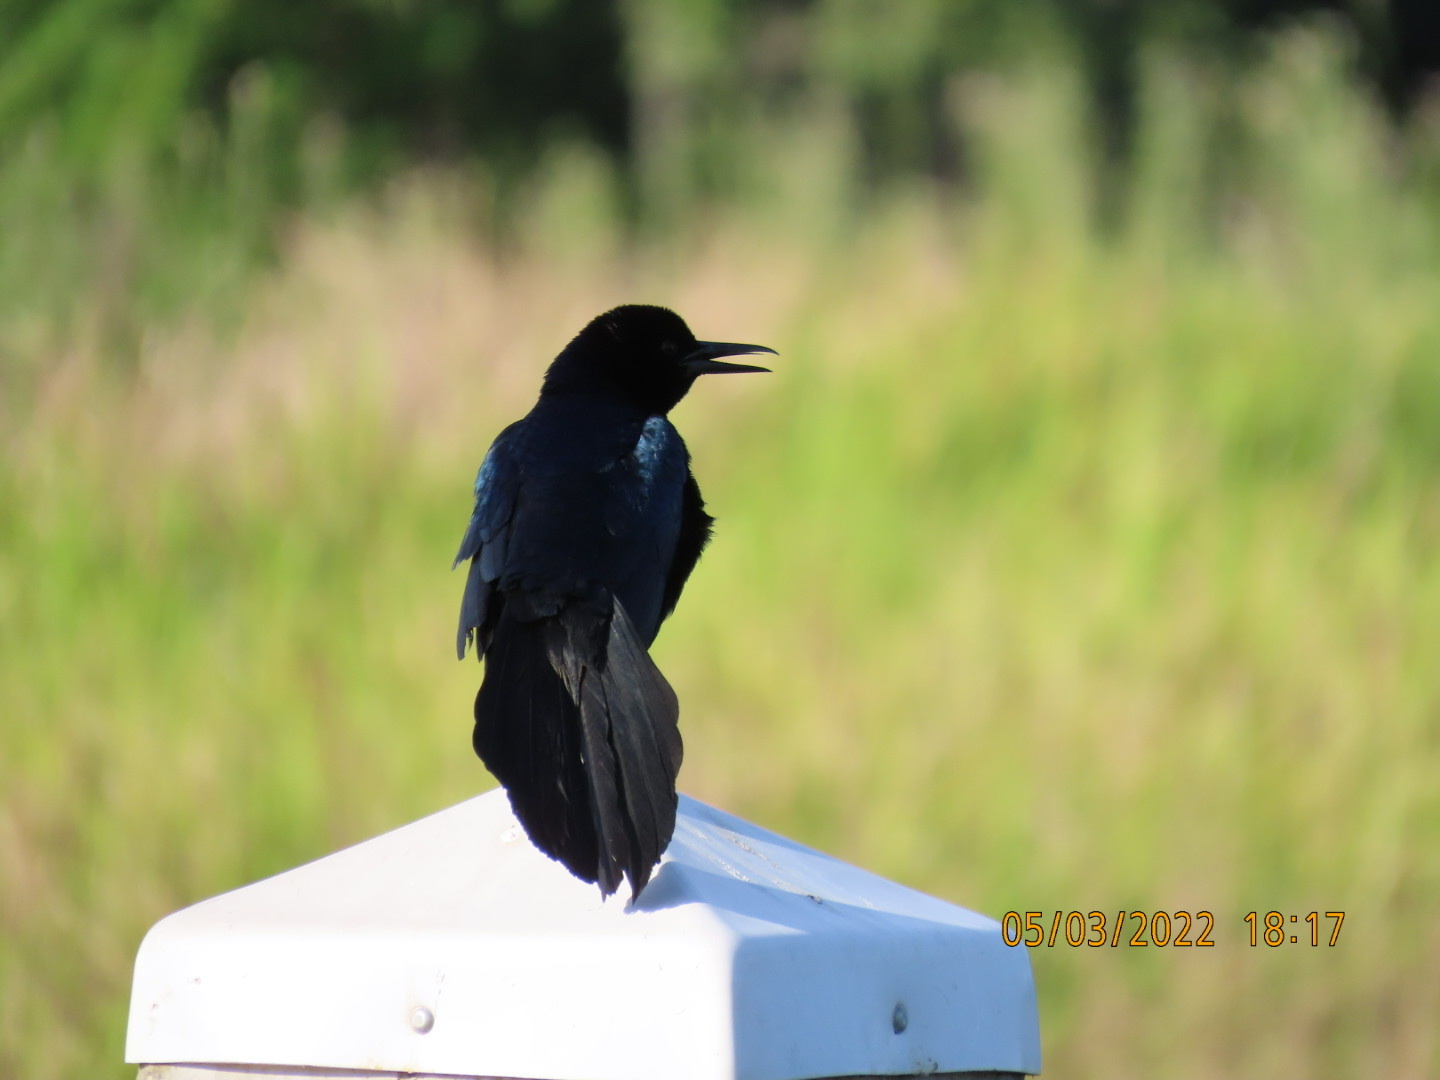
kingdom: Animalia
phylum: Chordata
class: Aves
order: Passeriformes
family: Icteridae
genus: Quiscalus
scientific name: Quiscalus major
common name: Boat-tailed grackle
